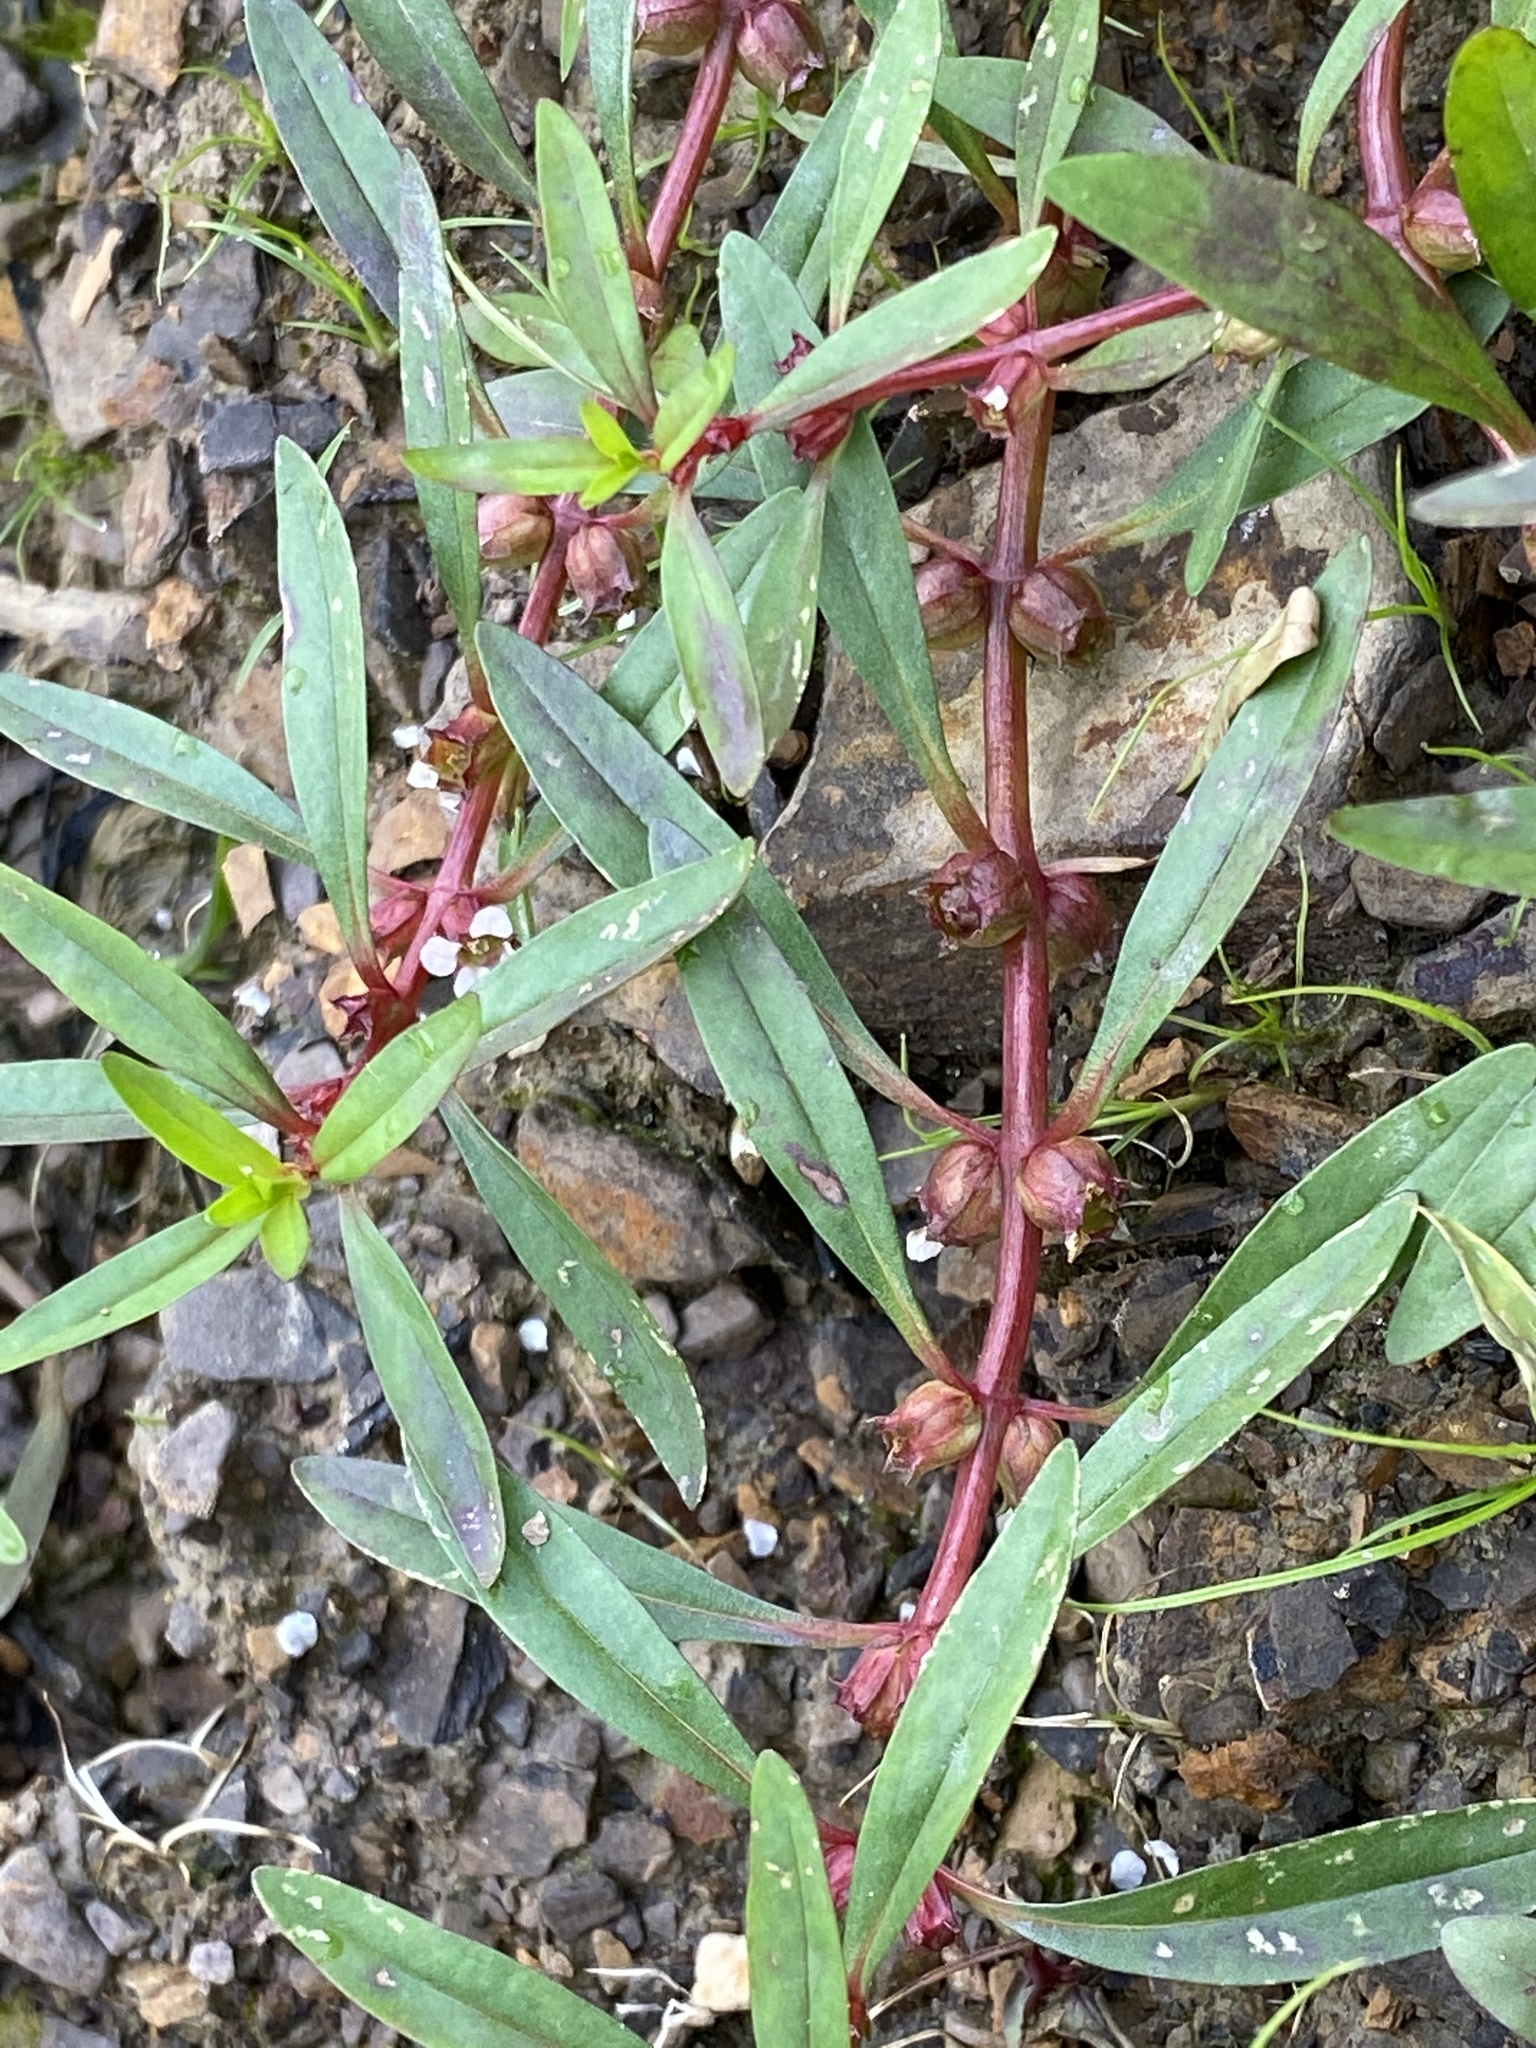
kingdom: Plantae
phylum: Tracheophyta
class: Magnoliopsida
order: Myrtales
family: Lythraceae
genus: Rotala
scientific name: Rotala ramosior
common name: Lowland rotala
